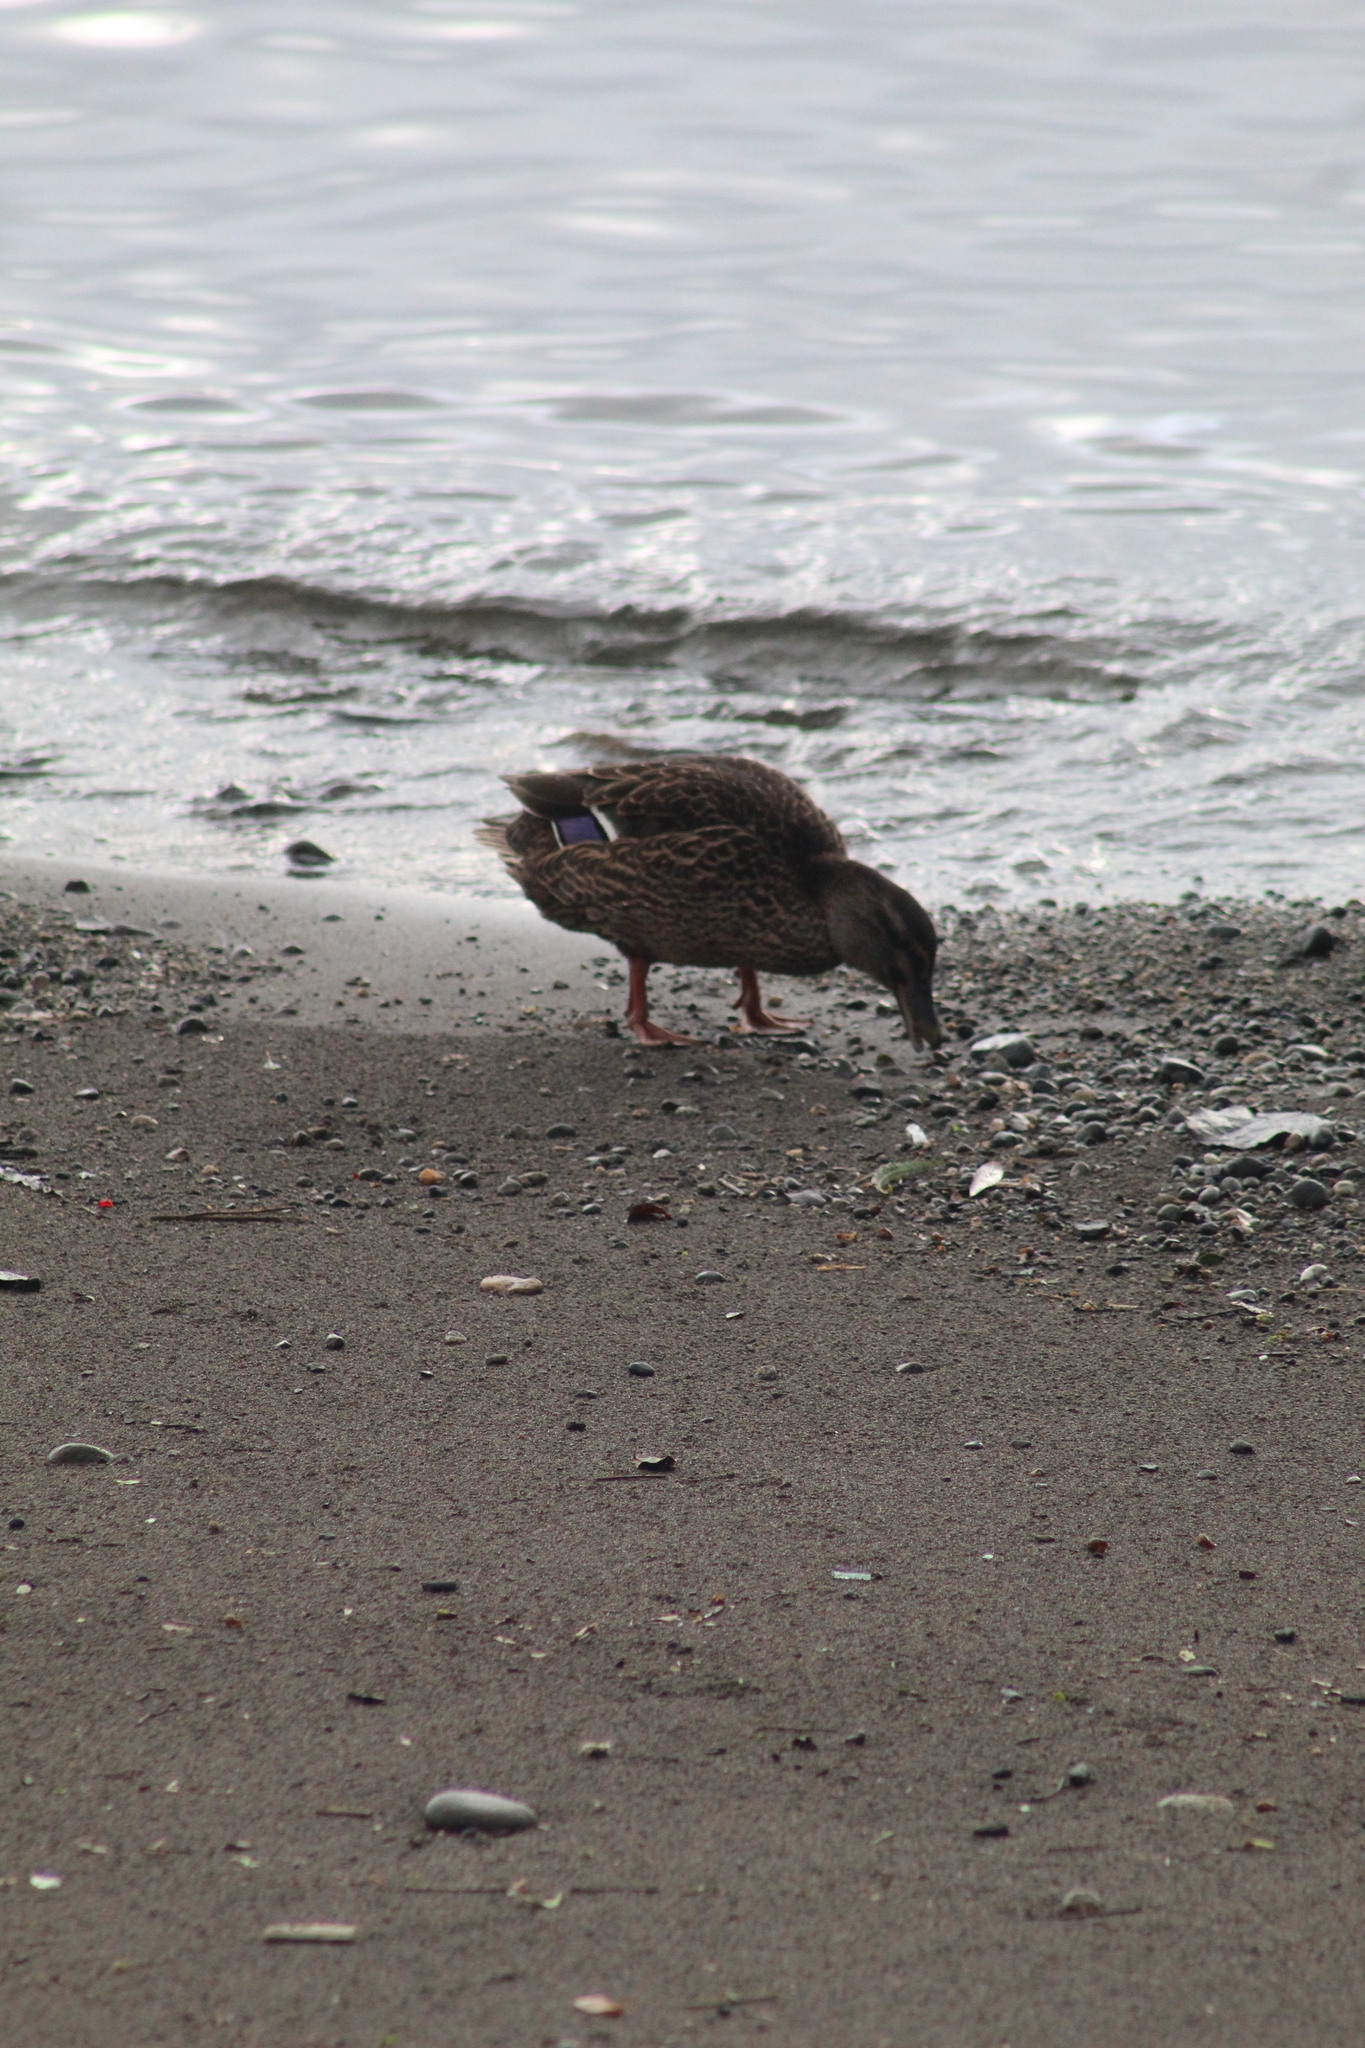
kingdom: Animalia
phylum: Chordata
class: Aves
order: Anseriformes
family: Anatidae
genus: Anas
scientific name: Anas platyrhynchos
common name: Mallard
